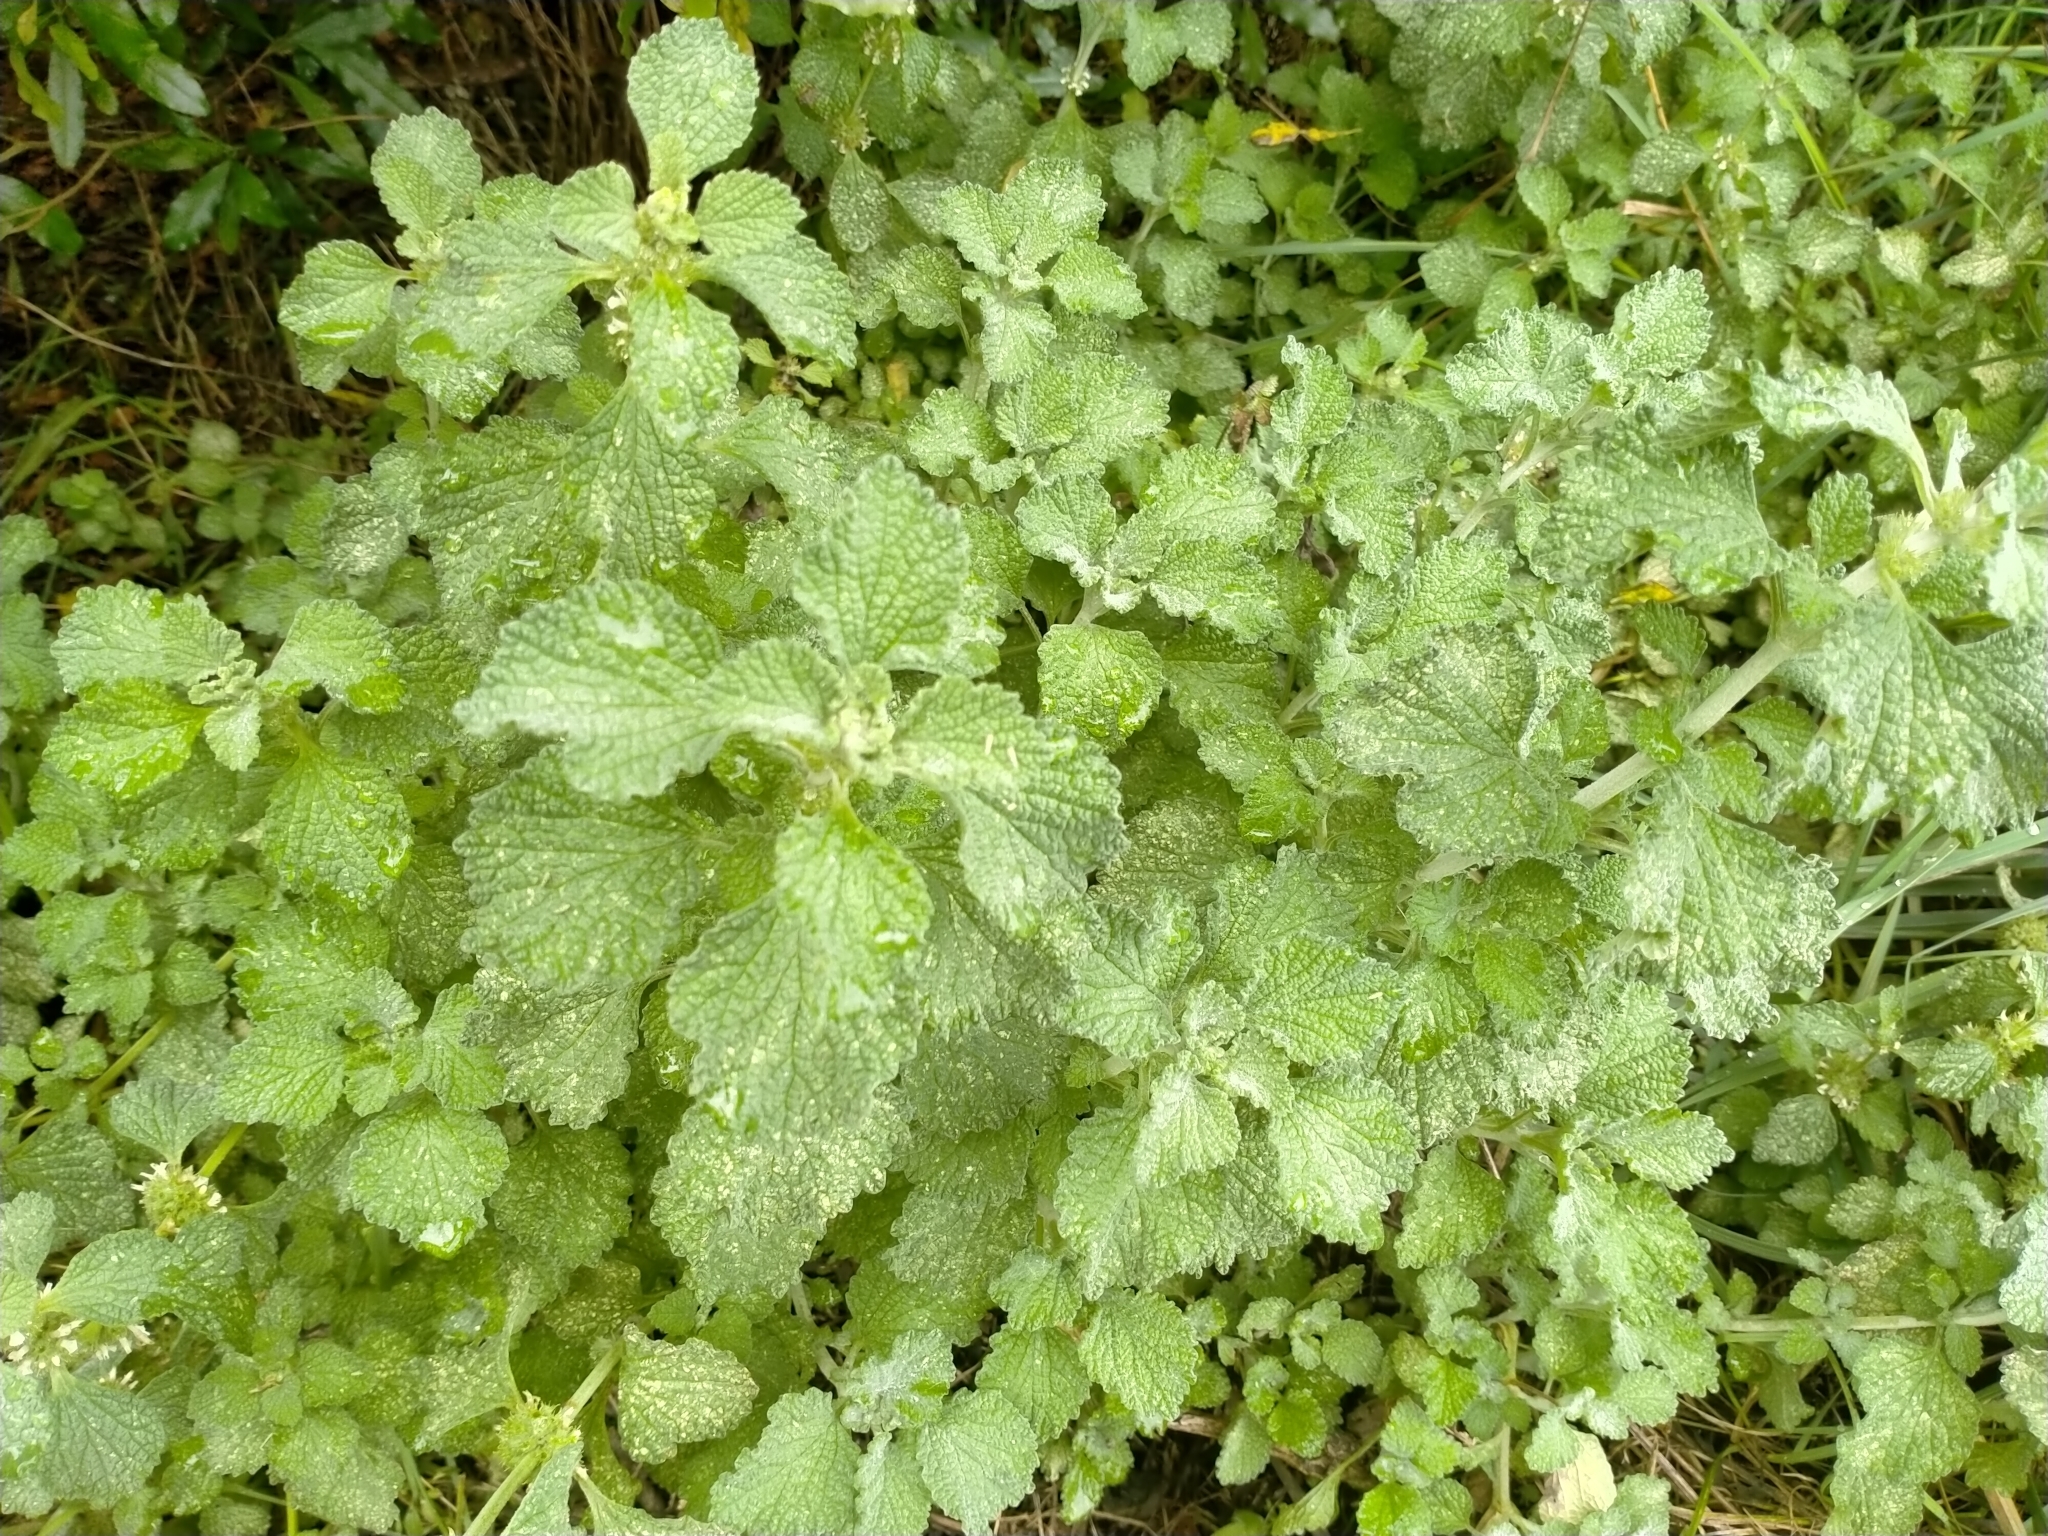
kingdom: Plantae
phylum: Tracheophyta
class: Magnoliopsida
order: Lamiales
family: Lamiaceae
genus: Marrubium
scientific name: Marrubium vulgare
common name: Horehound
